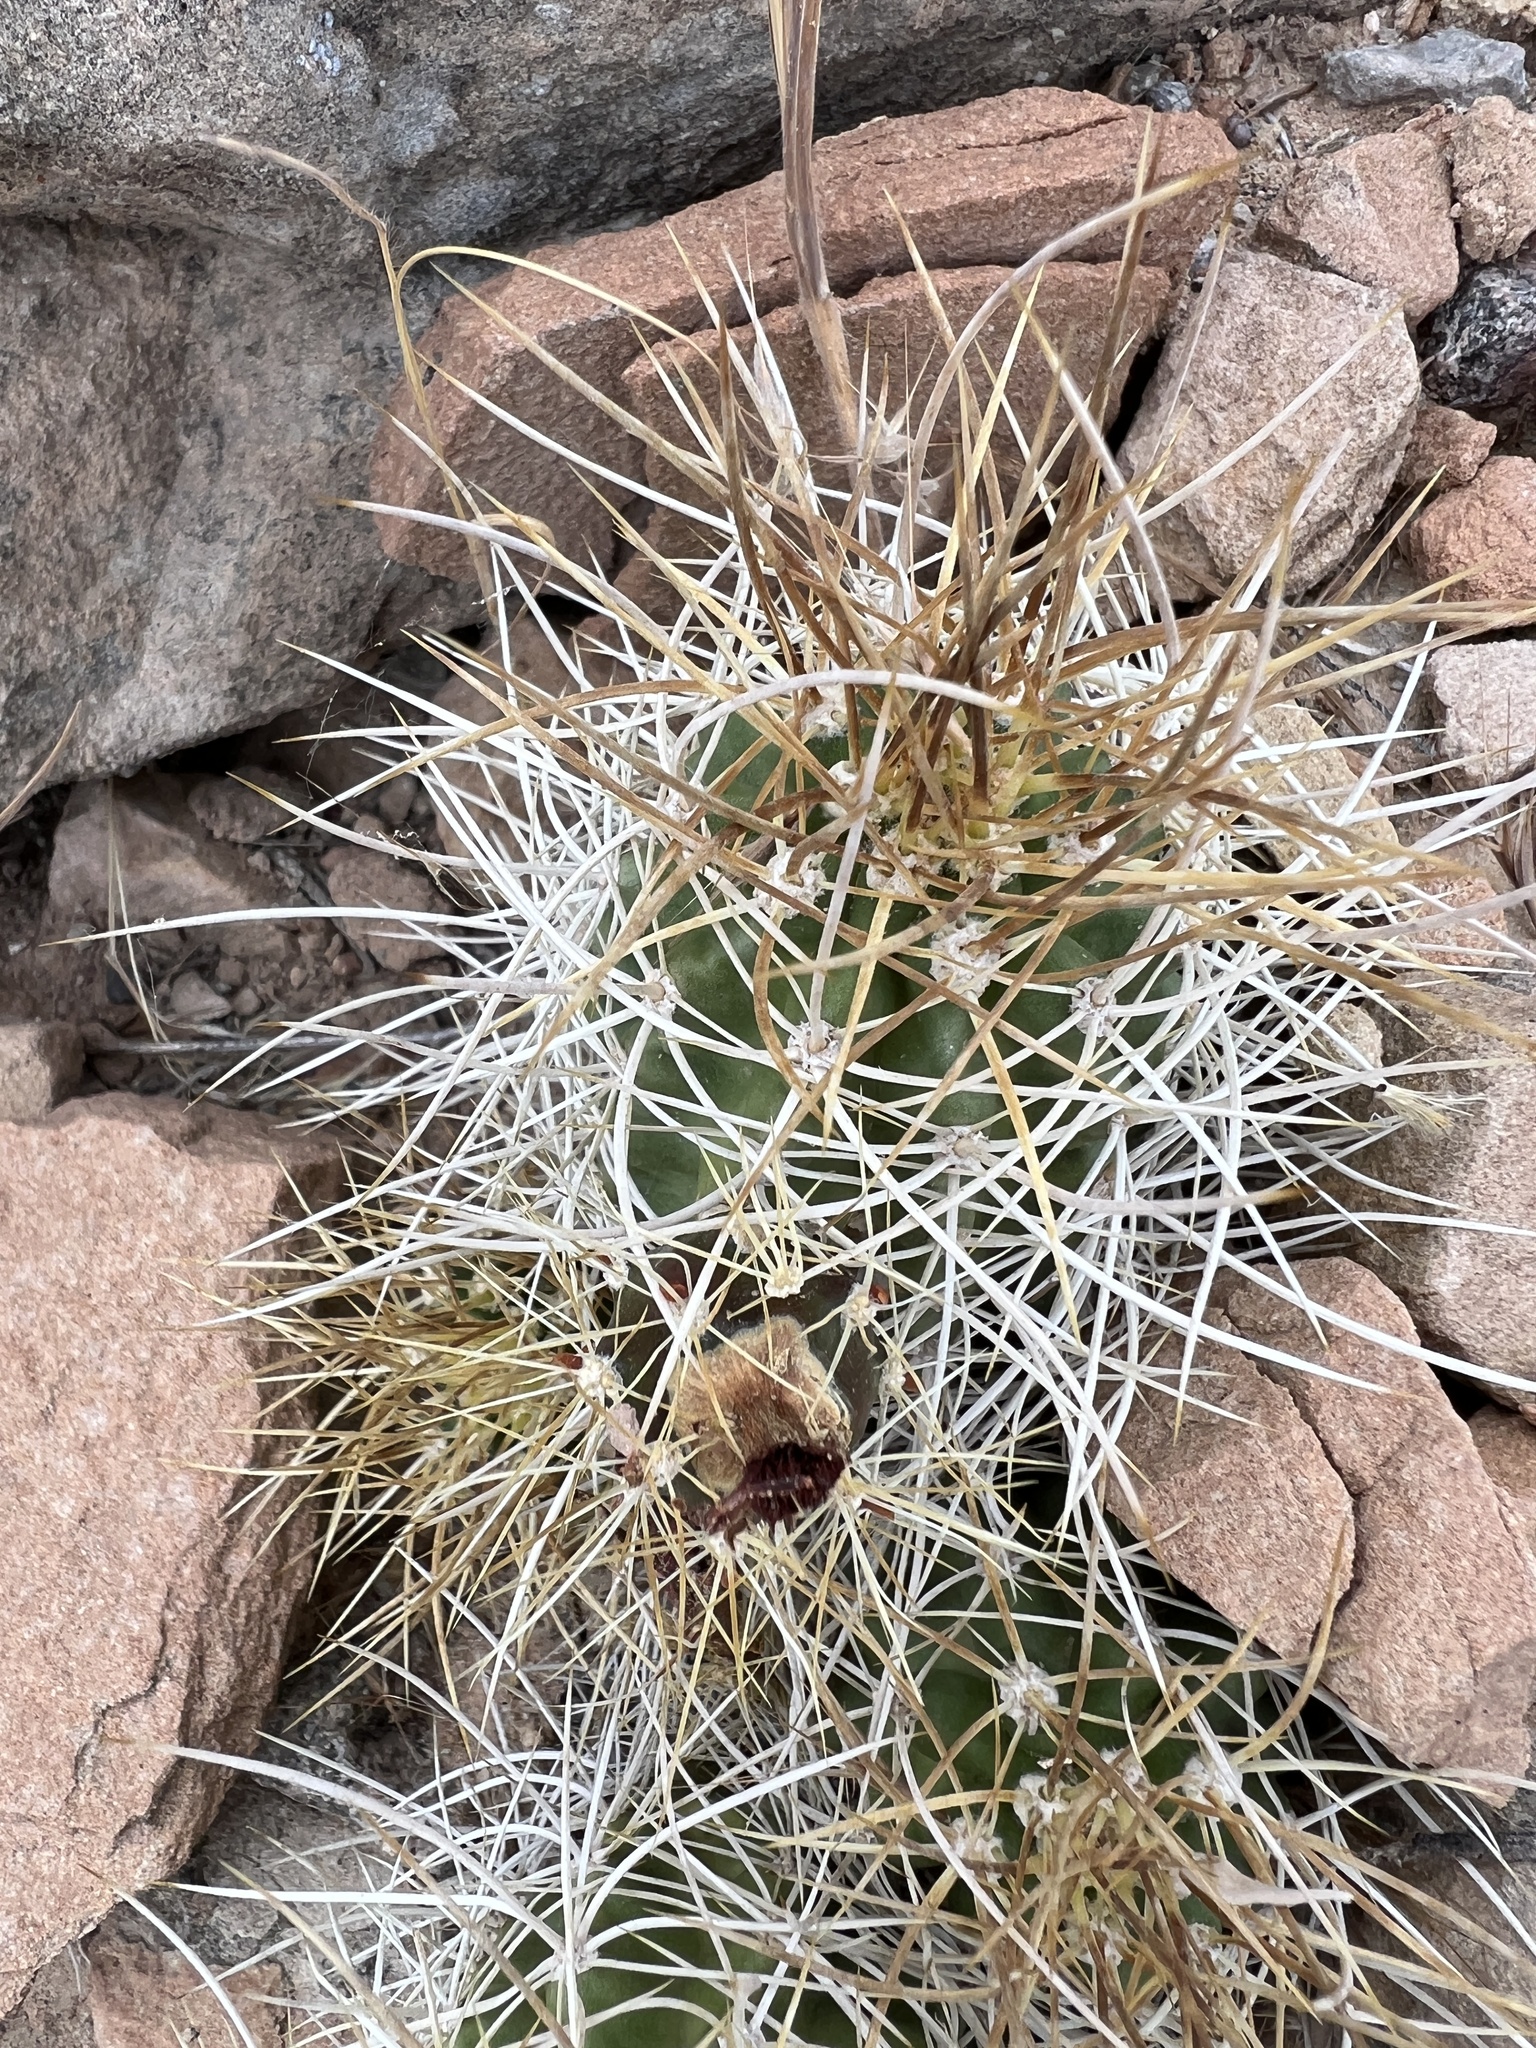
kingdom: Plantae
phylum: Tracheophyta
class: Magnoliopsida
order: Caryophyllales
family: Cactaceae
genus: Echinocereus
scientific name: Echinocereus triglochidiatus
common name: Claretcup hedgehog
